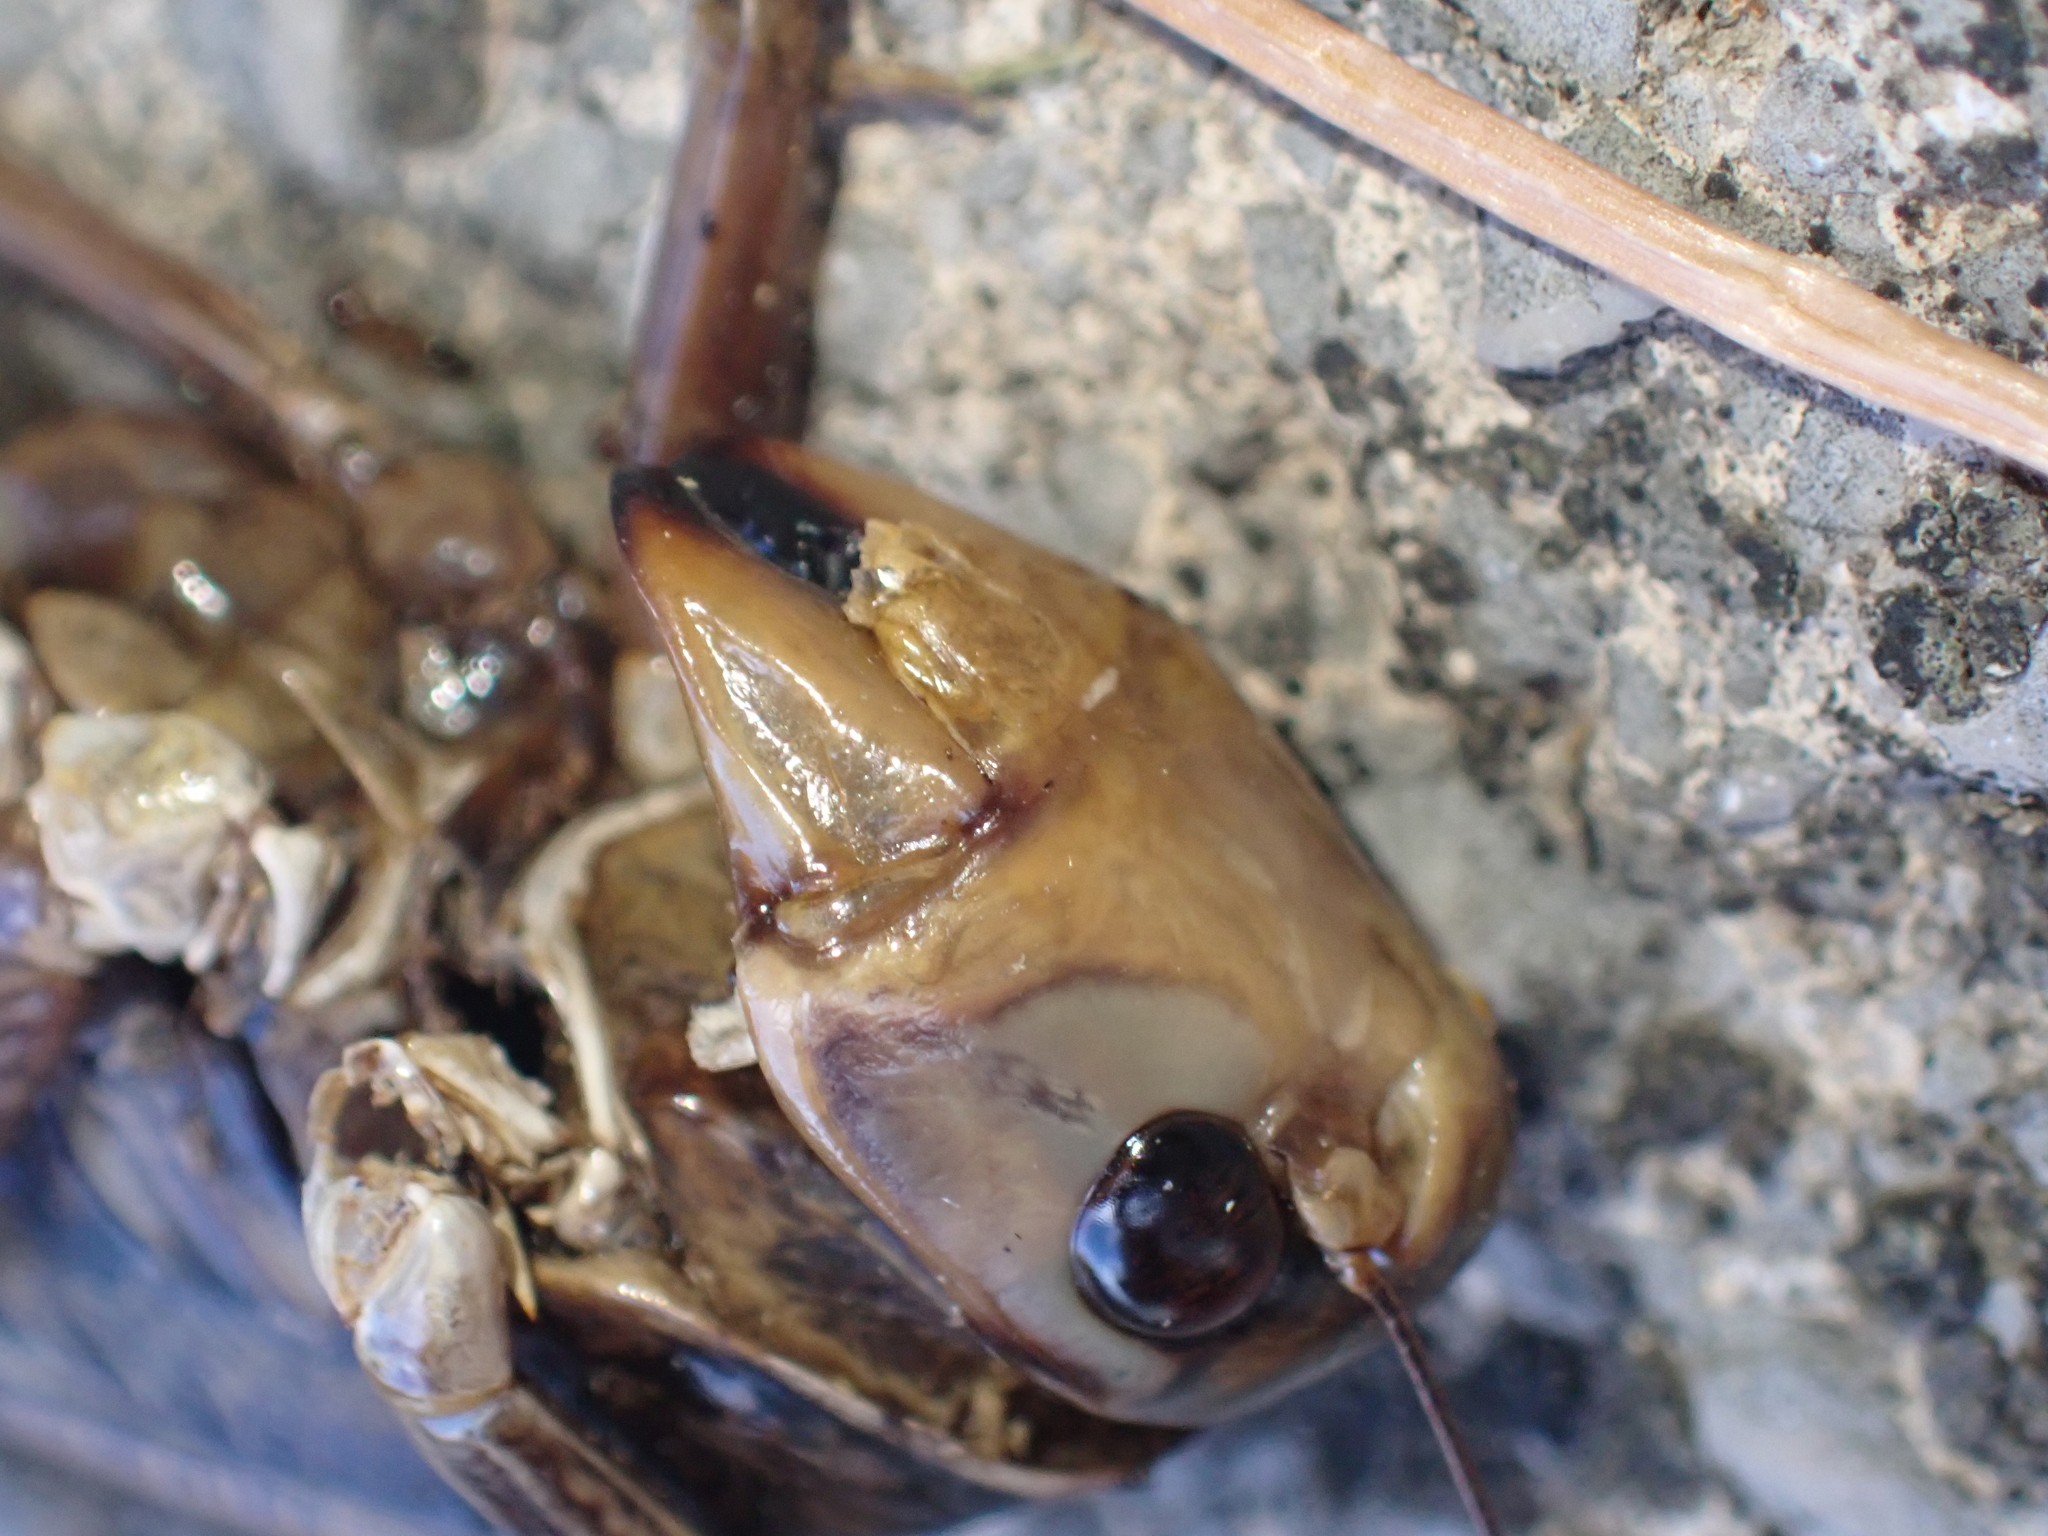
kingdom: Animalia
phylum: Arthropoda
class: Insecta
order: Orthoptera
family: Tettigoniidae
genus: Decticus
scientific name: Decticus albifrons
